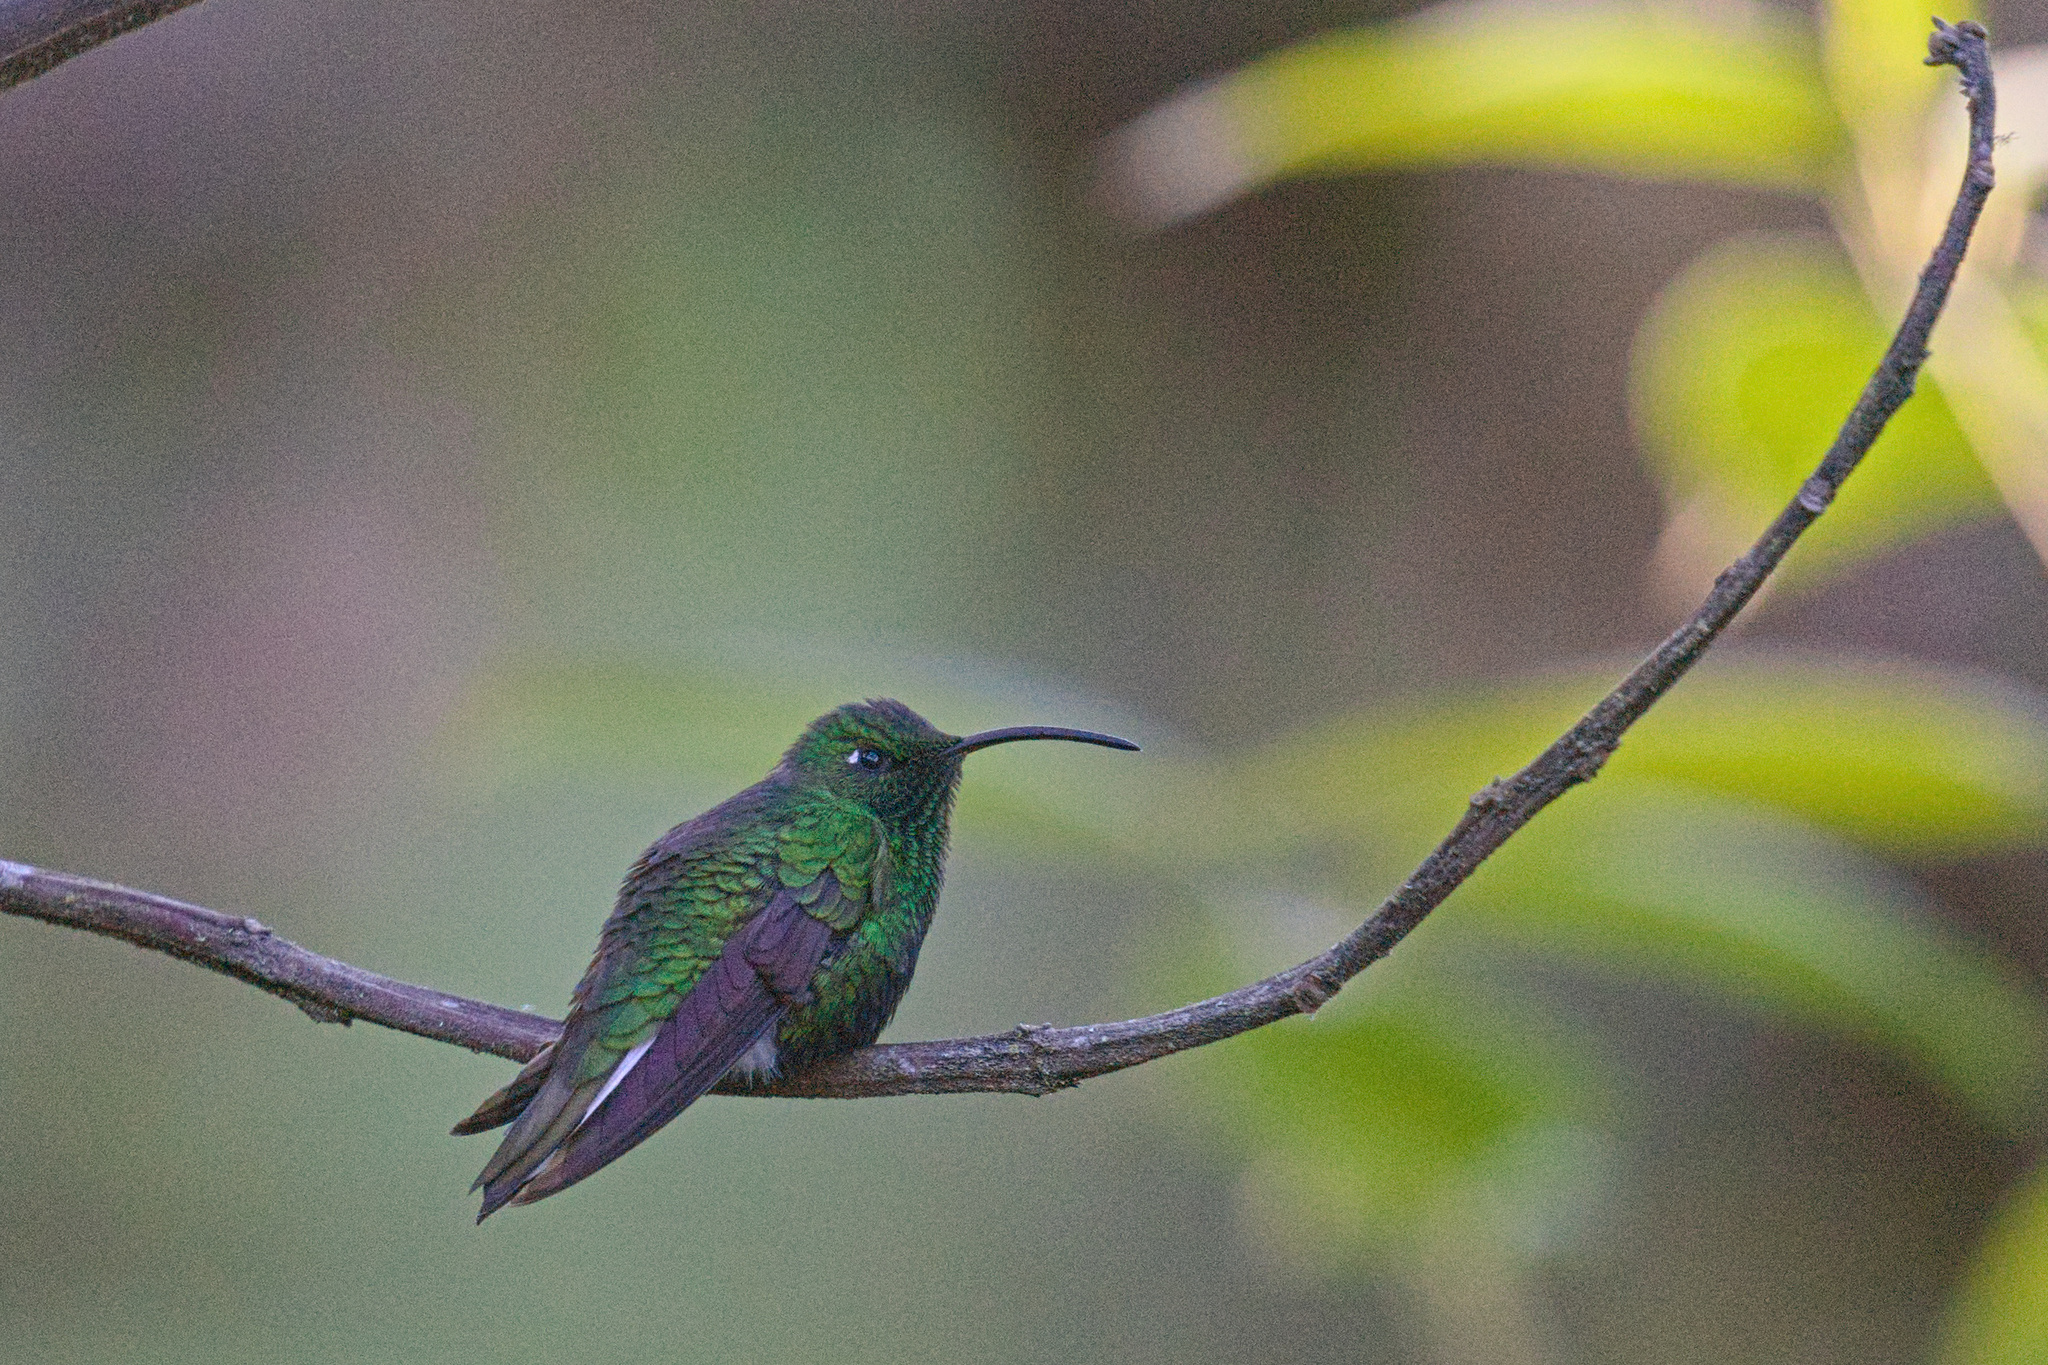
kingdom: Animalia
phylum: Chordata
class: Aves
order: Apodiformes
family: Trochilidae
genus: Lafresnaya
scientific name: Lafresnaya lafresnayi
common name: Mountain velvetbreast
